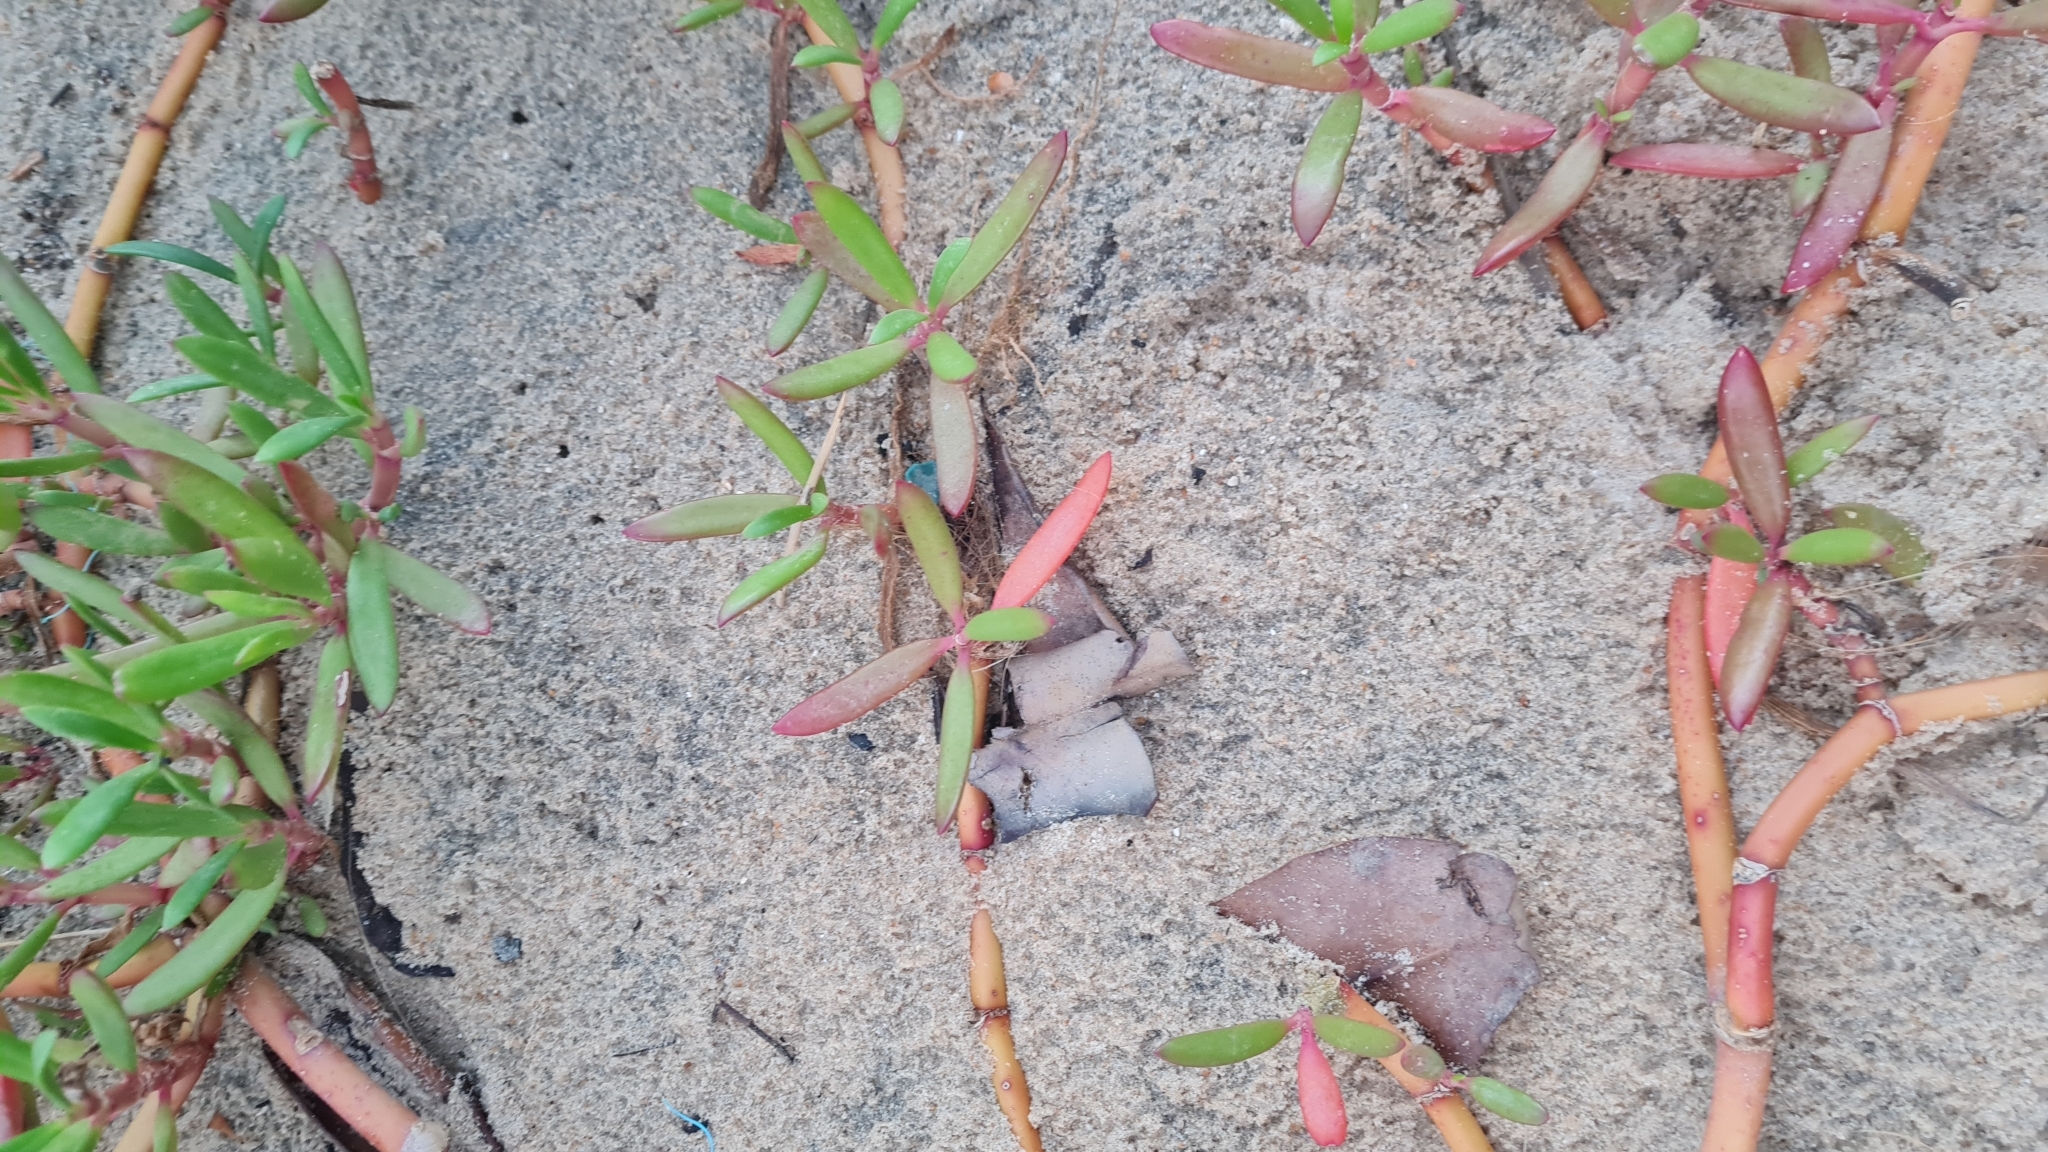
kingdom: Plantae
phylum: Tracheophyta
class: Magnoliopsida
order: Caryophyllales
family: Aizoaceae
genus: Sesuvium
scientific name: Sesuvium portulacastrum
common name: Sea-purslane
